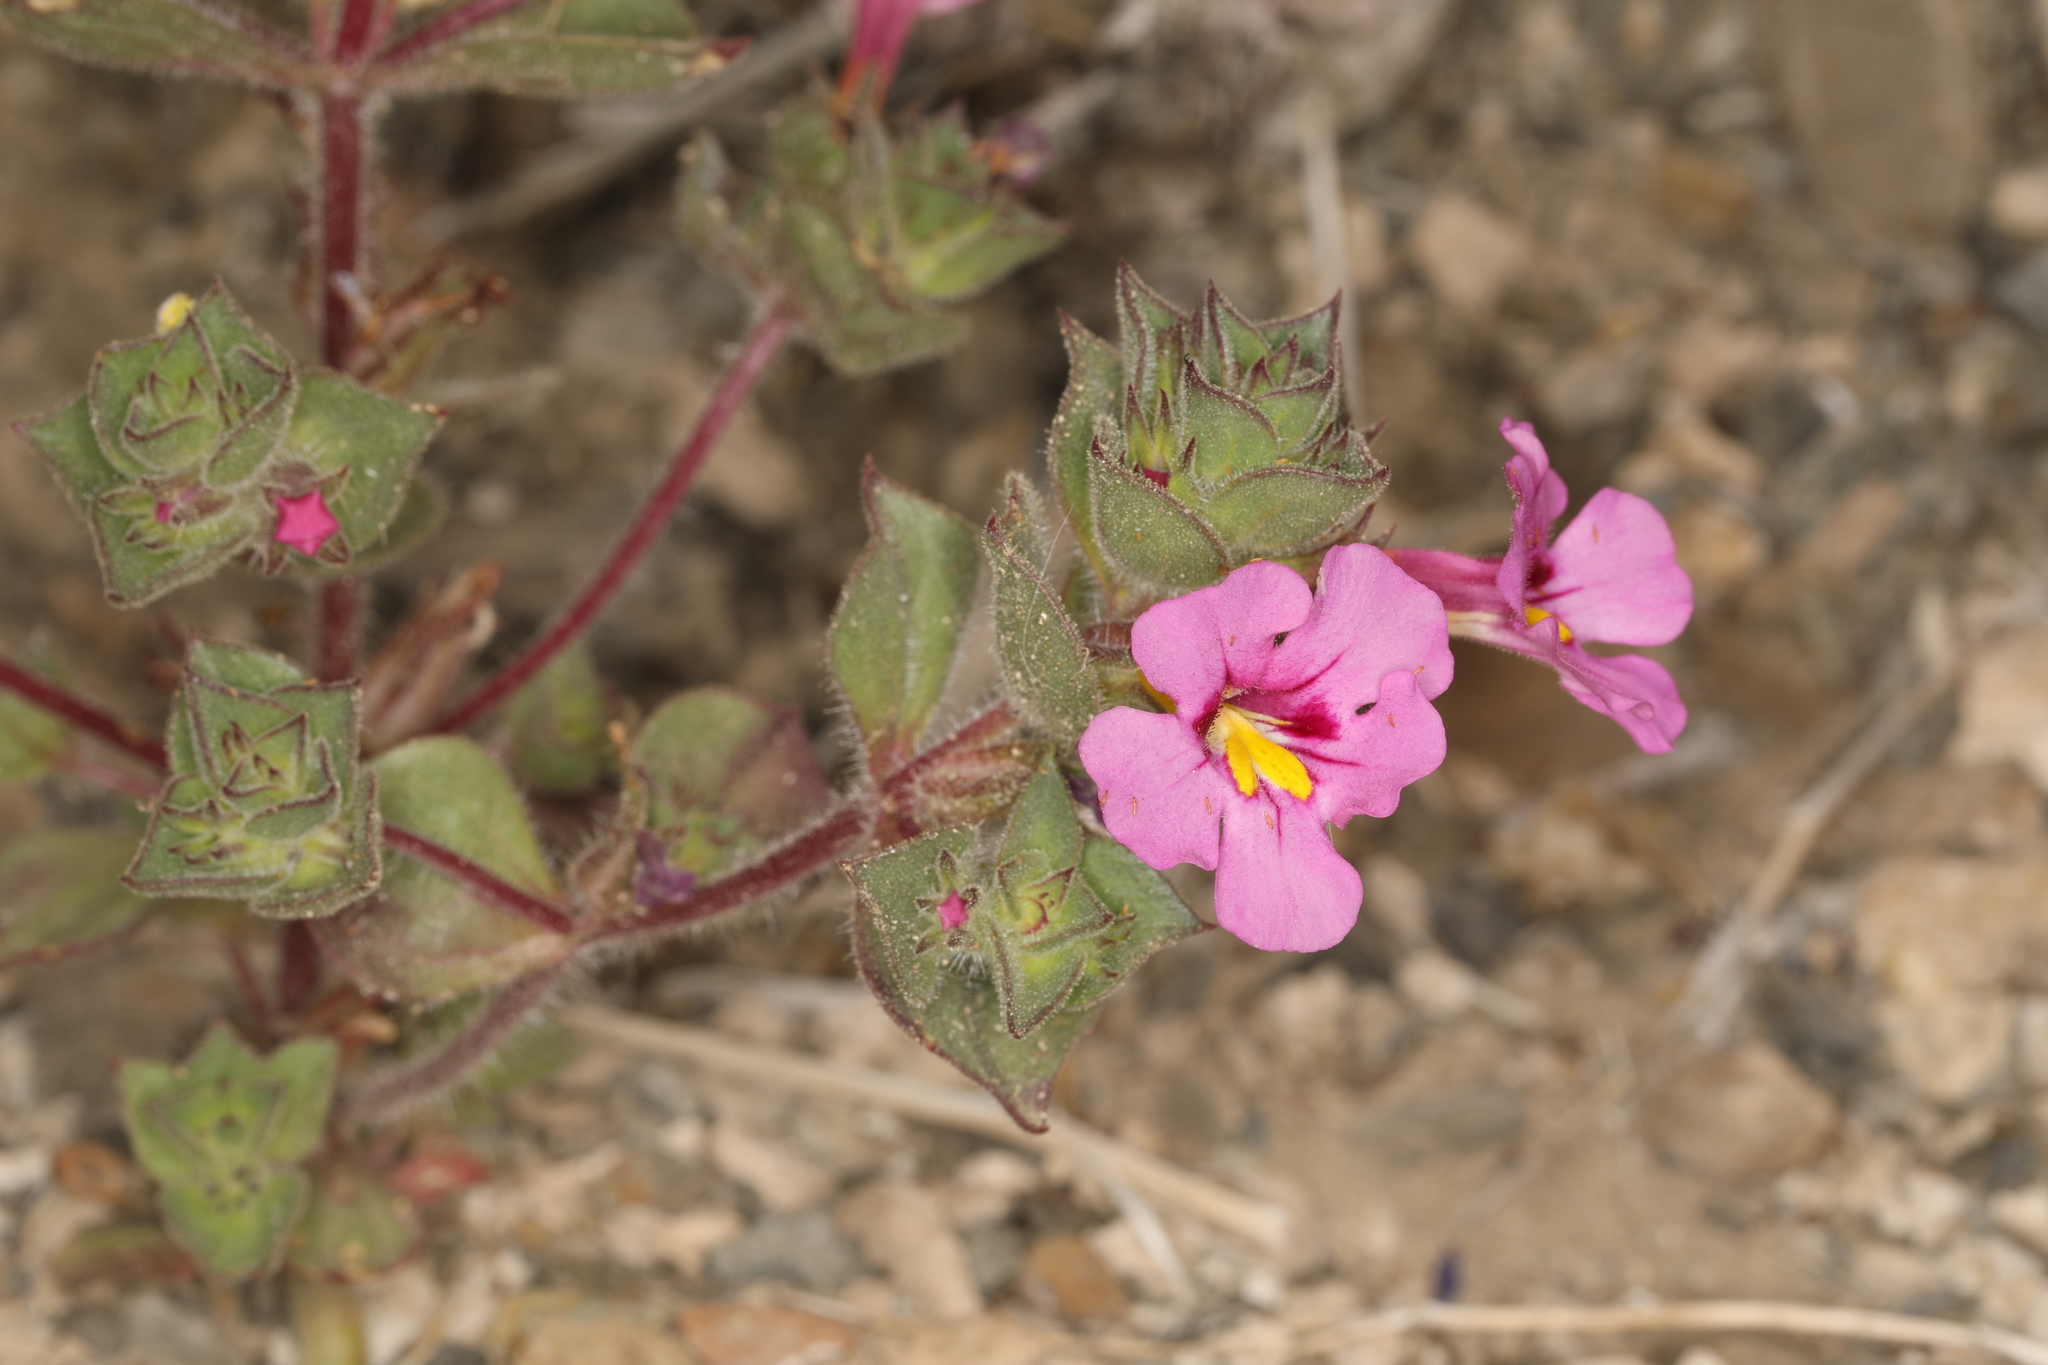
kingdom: Plantae
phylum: Tracheophyta
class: Magnoliopsida
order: Lamiales
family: Phrymaceae
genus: Diplacus
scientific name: Diplacus bigelovii
